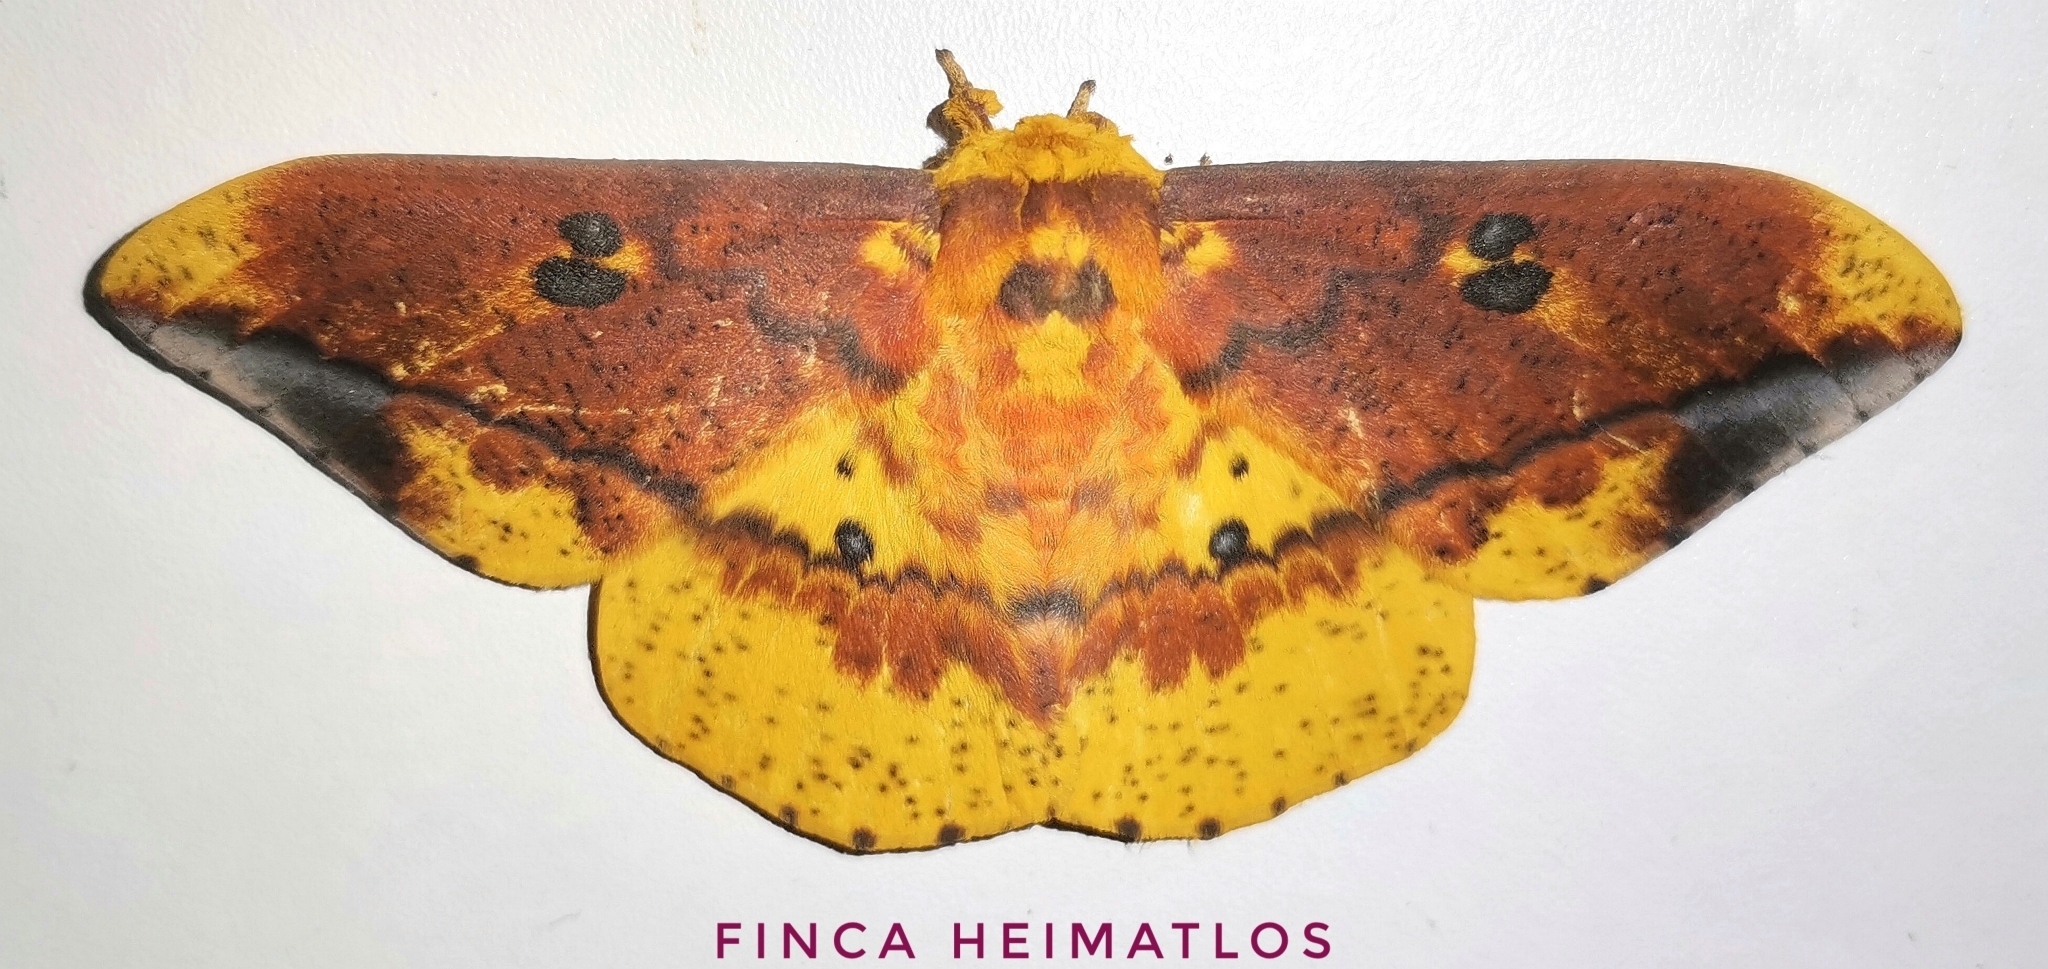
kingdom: Animalia
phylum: Arthropoda
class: Insecta
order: Lepidoptera
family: Saturniidae
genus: Eacles
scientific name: Eacles ormondei
